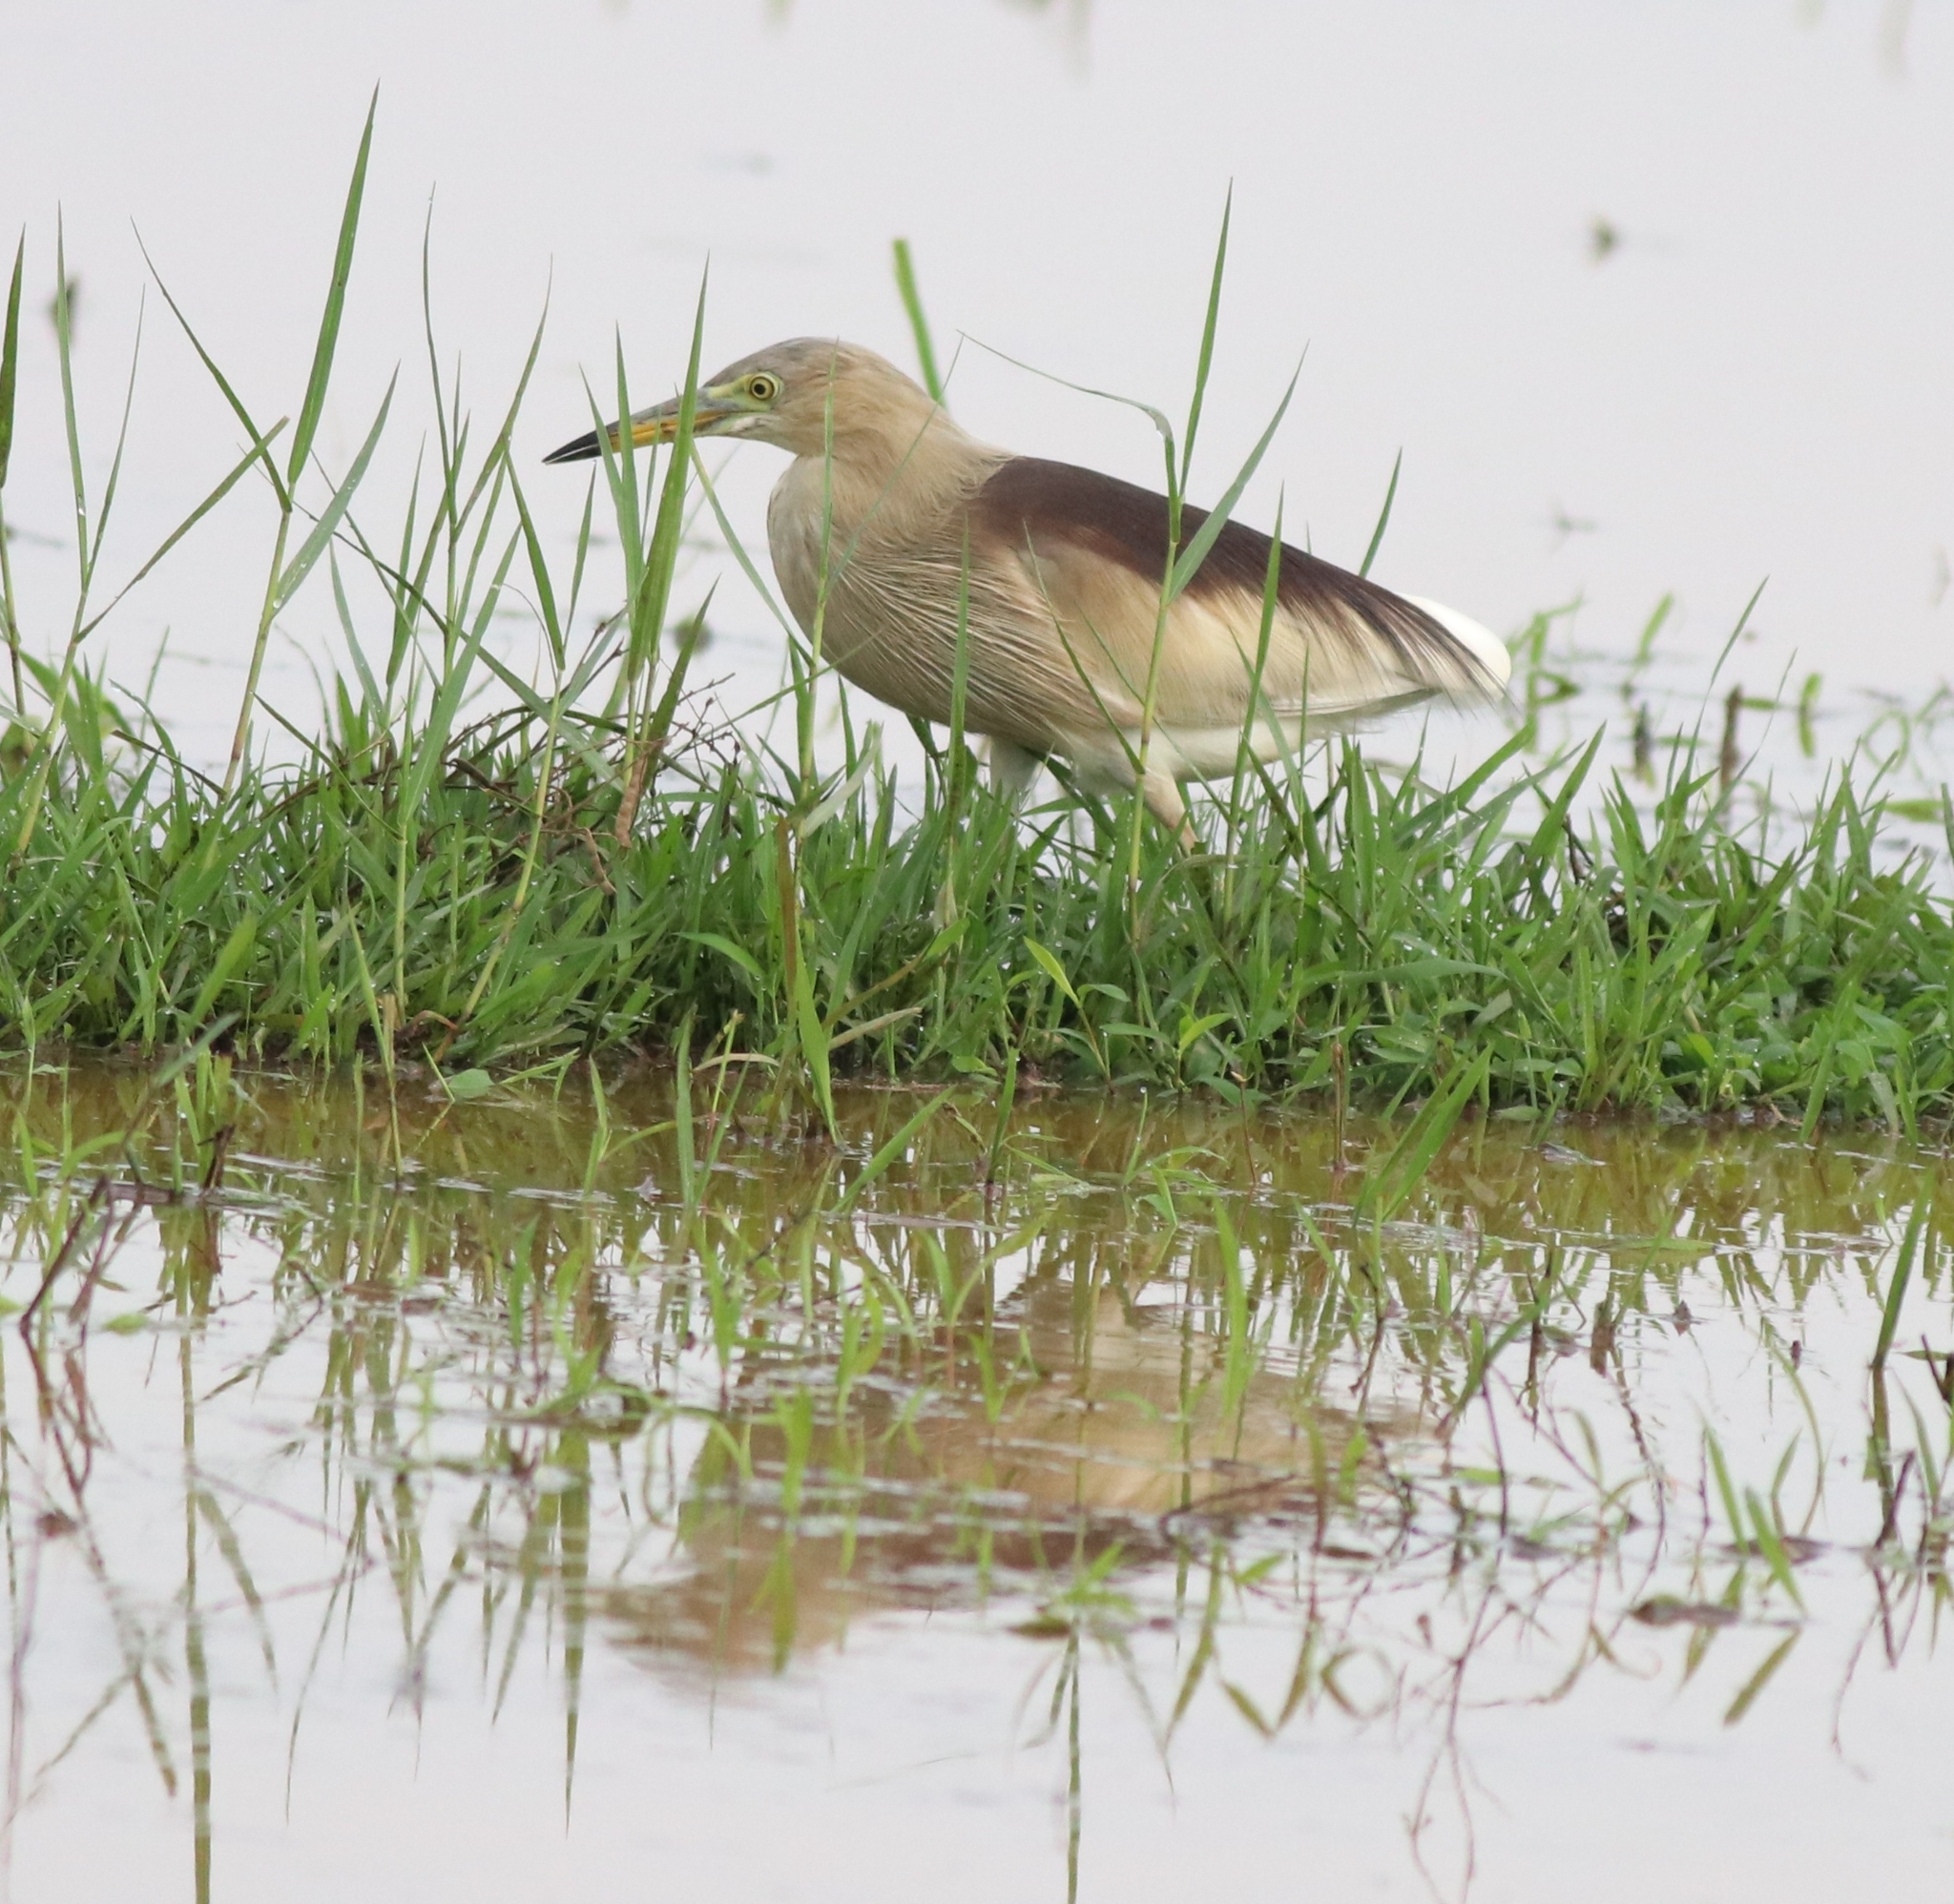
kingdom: Animalia
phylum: Chordata
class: Aves
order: Pelecaniformes
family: Ardeidae
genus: Ardeola
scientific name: Ardeola grayii
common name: Indian pond heron
